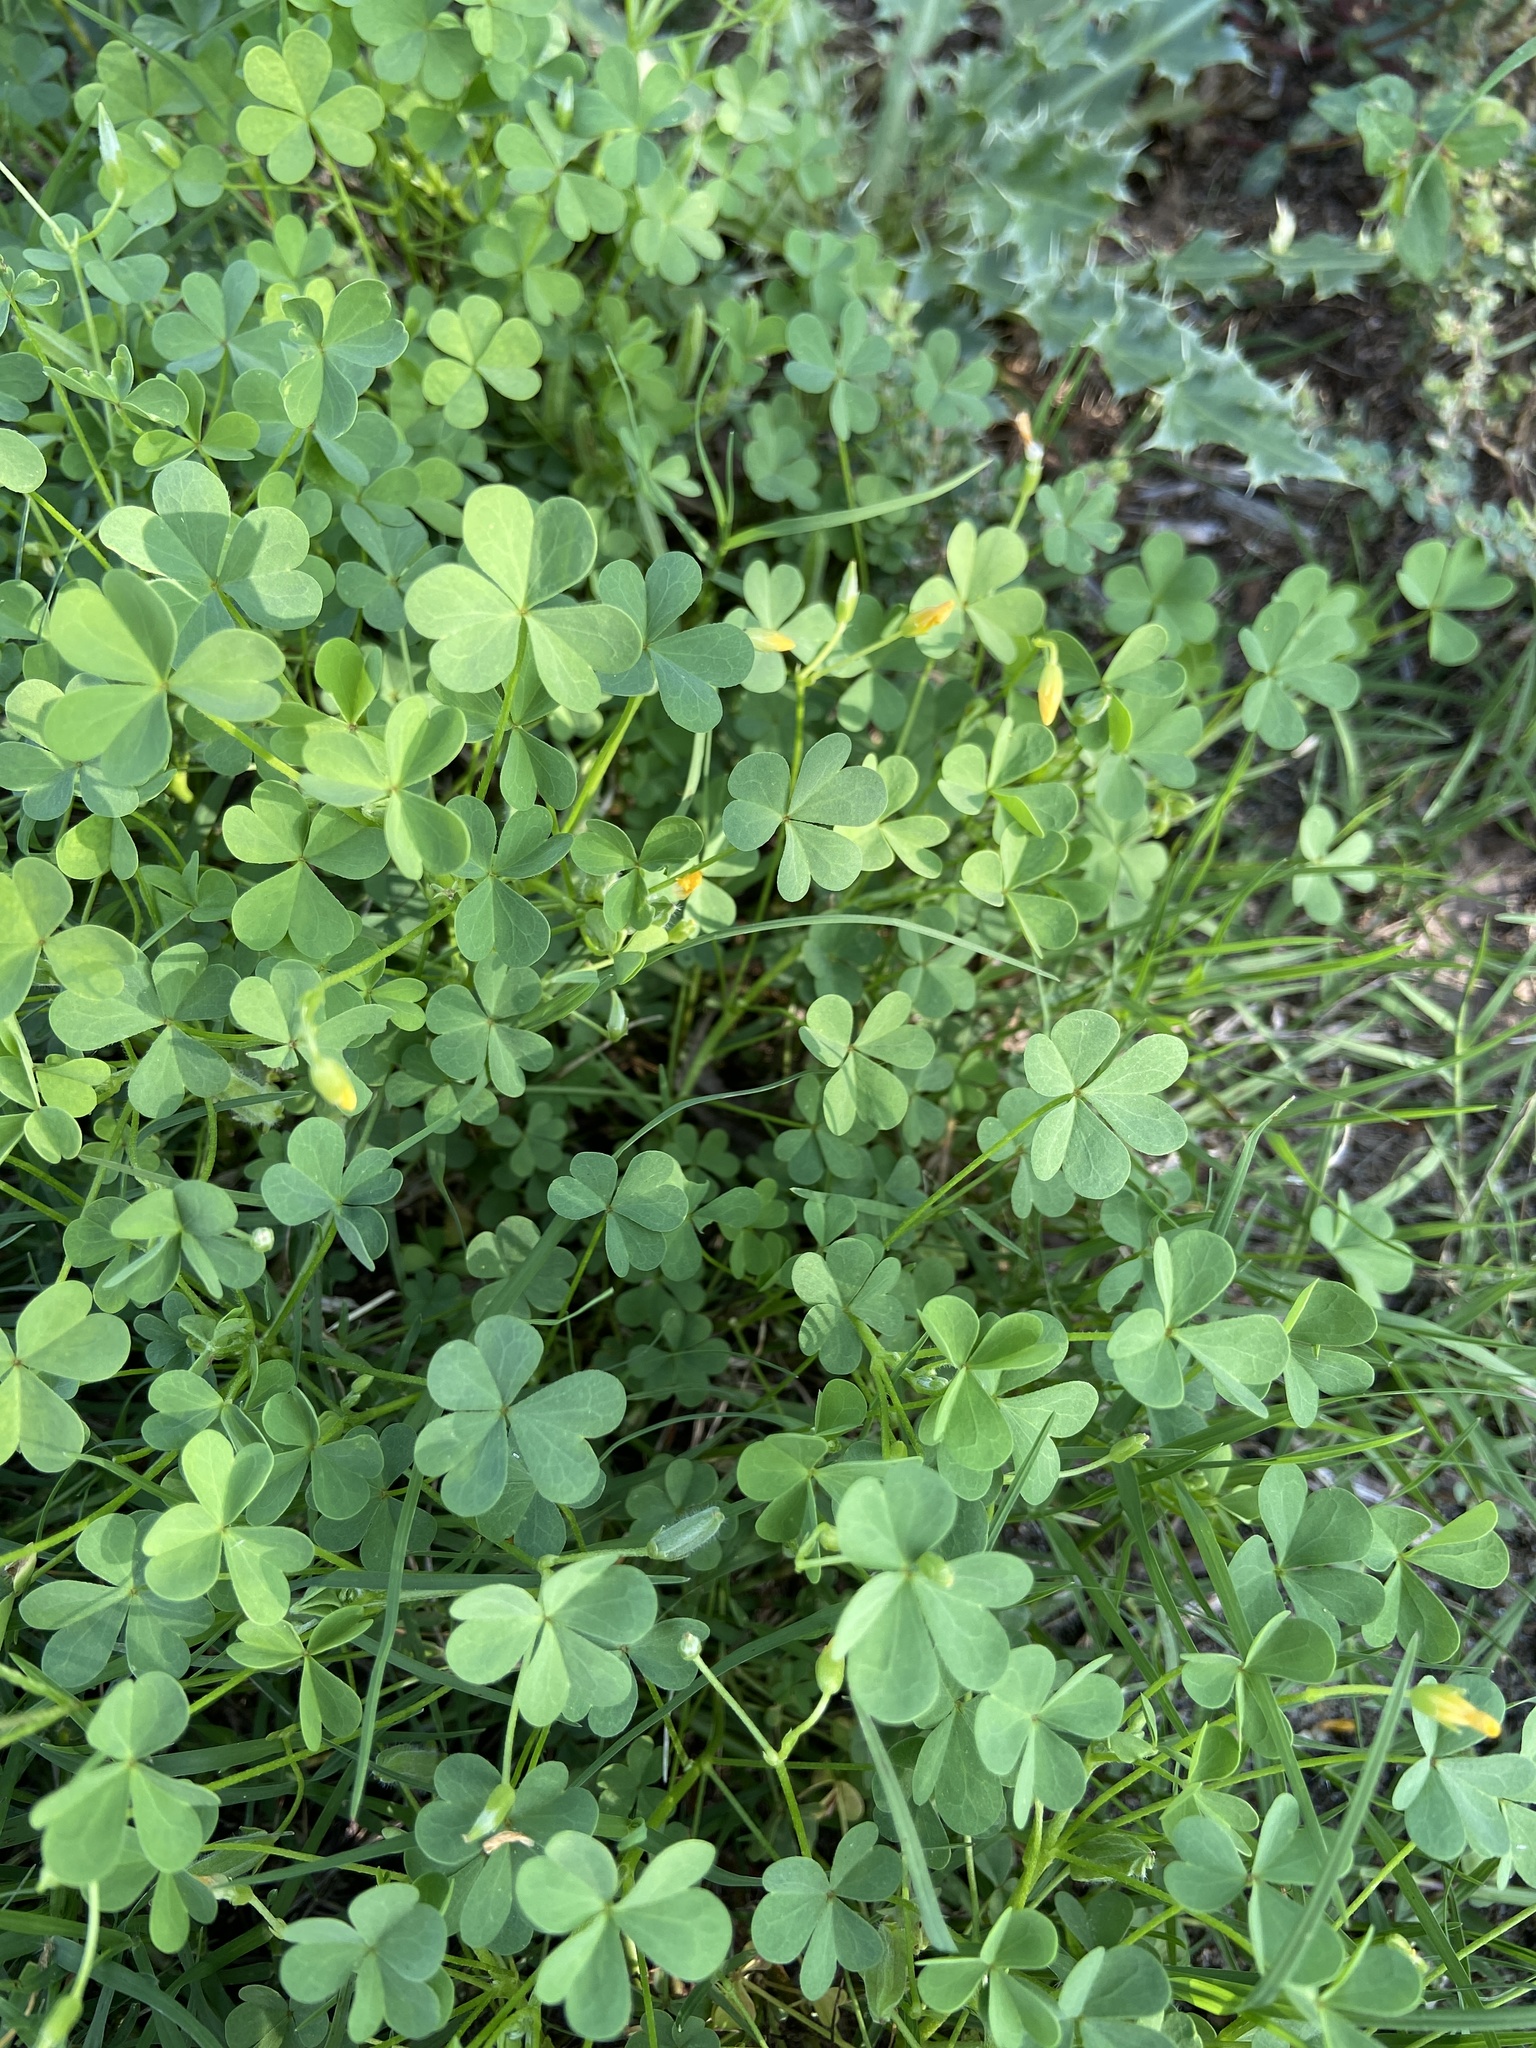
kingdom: Plantae
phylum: Tracheophyta
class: Magnoliopsida
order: Oxalidales
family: Oxalidaceae
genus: Oxalis
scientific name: Oxalis corniculata
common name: Procumbent yellow-sorrel
